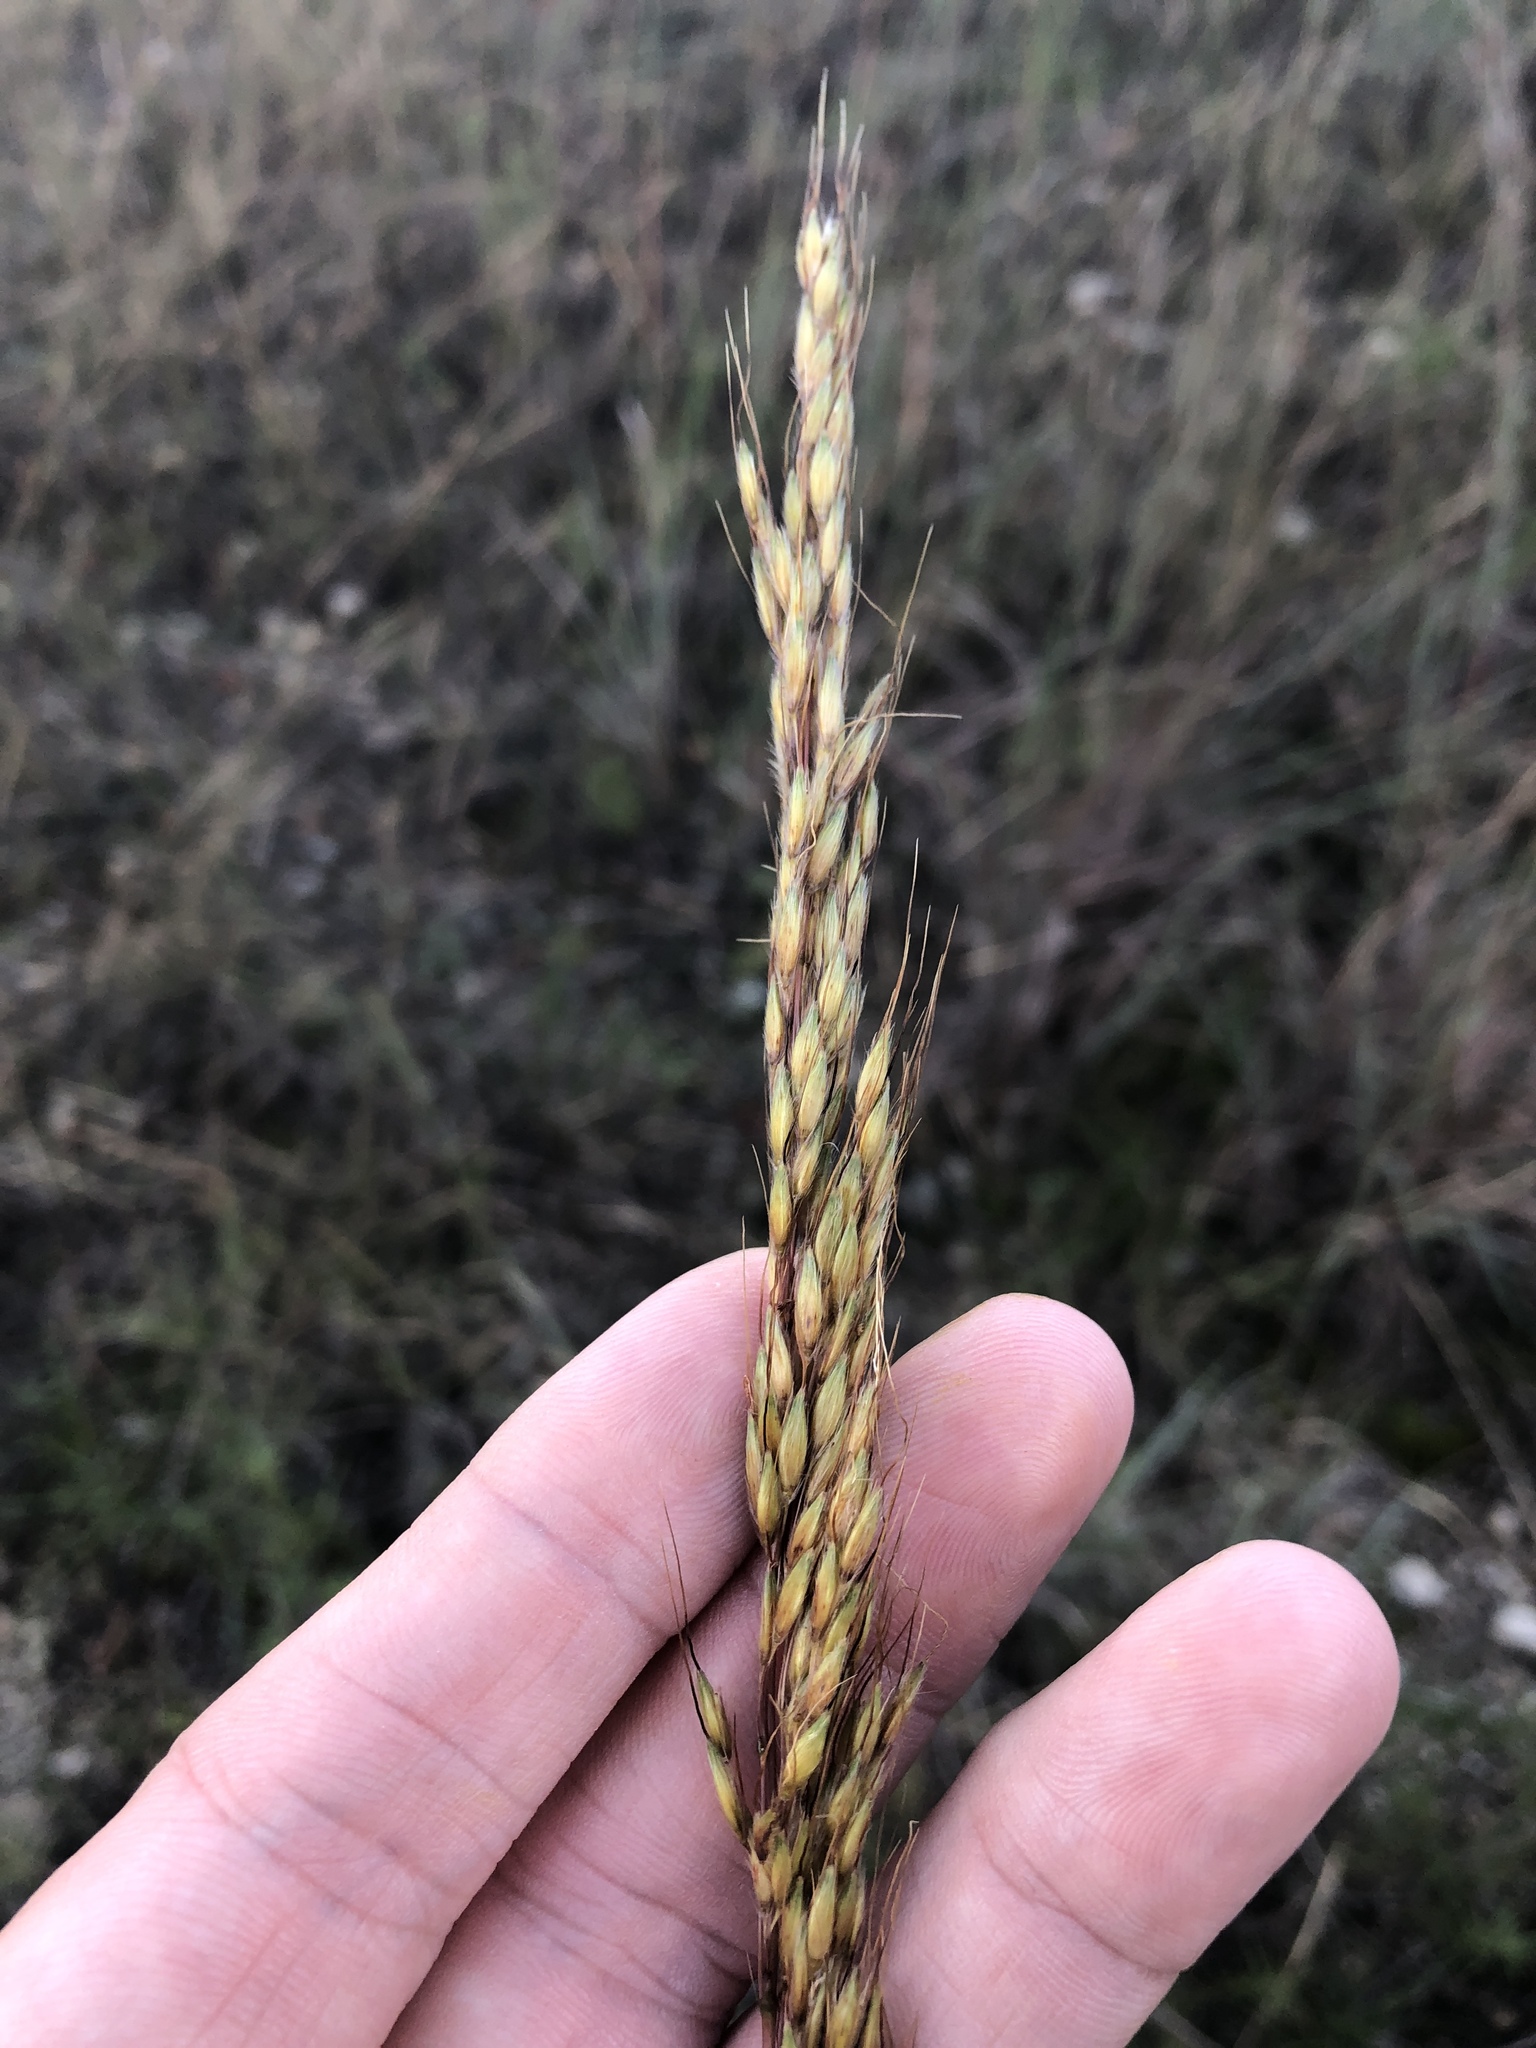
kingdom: Plantae
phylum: Tracheophyta
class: Liliopsida
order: Poales
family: Poaceae
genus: Sorghastrum
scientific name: Sorghastrum nutans
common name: Indian grass
